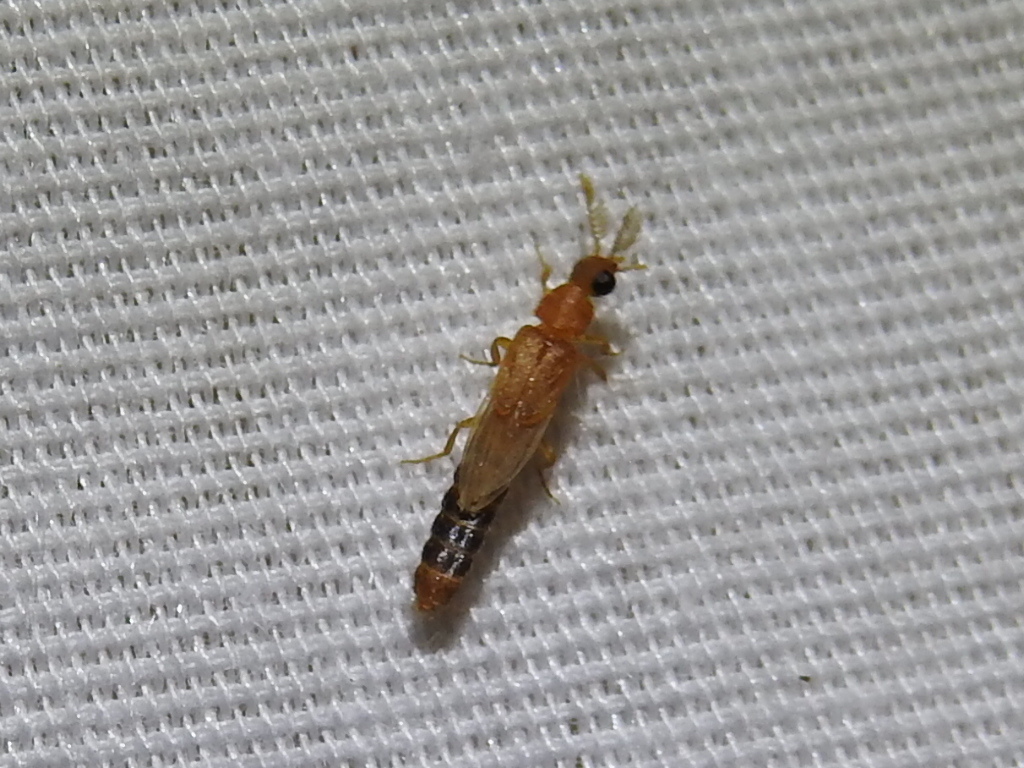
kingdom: Animalia
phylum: Arthropoda
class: Insecta
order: Coleoptera
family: Phengodidae
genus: Distremocephalus
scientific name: Distremocephalus texanus
